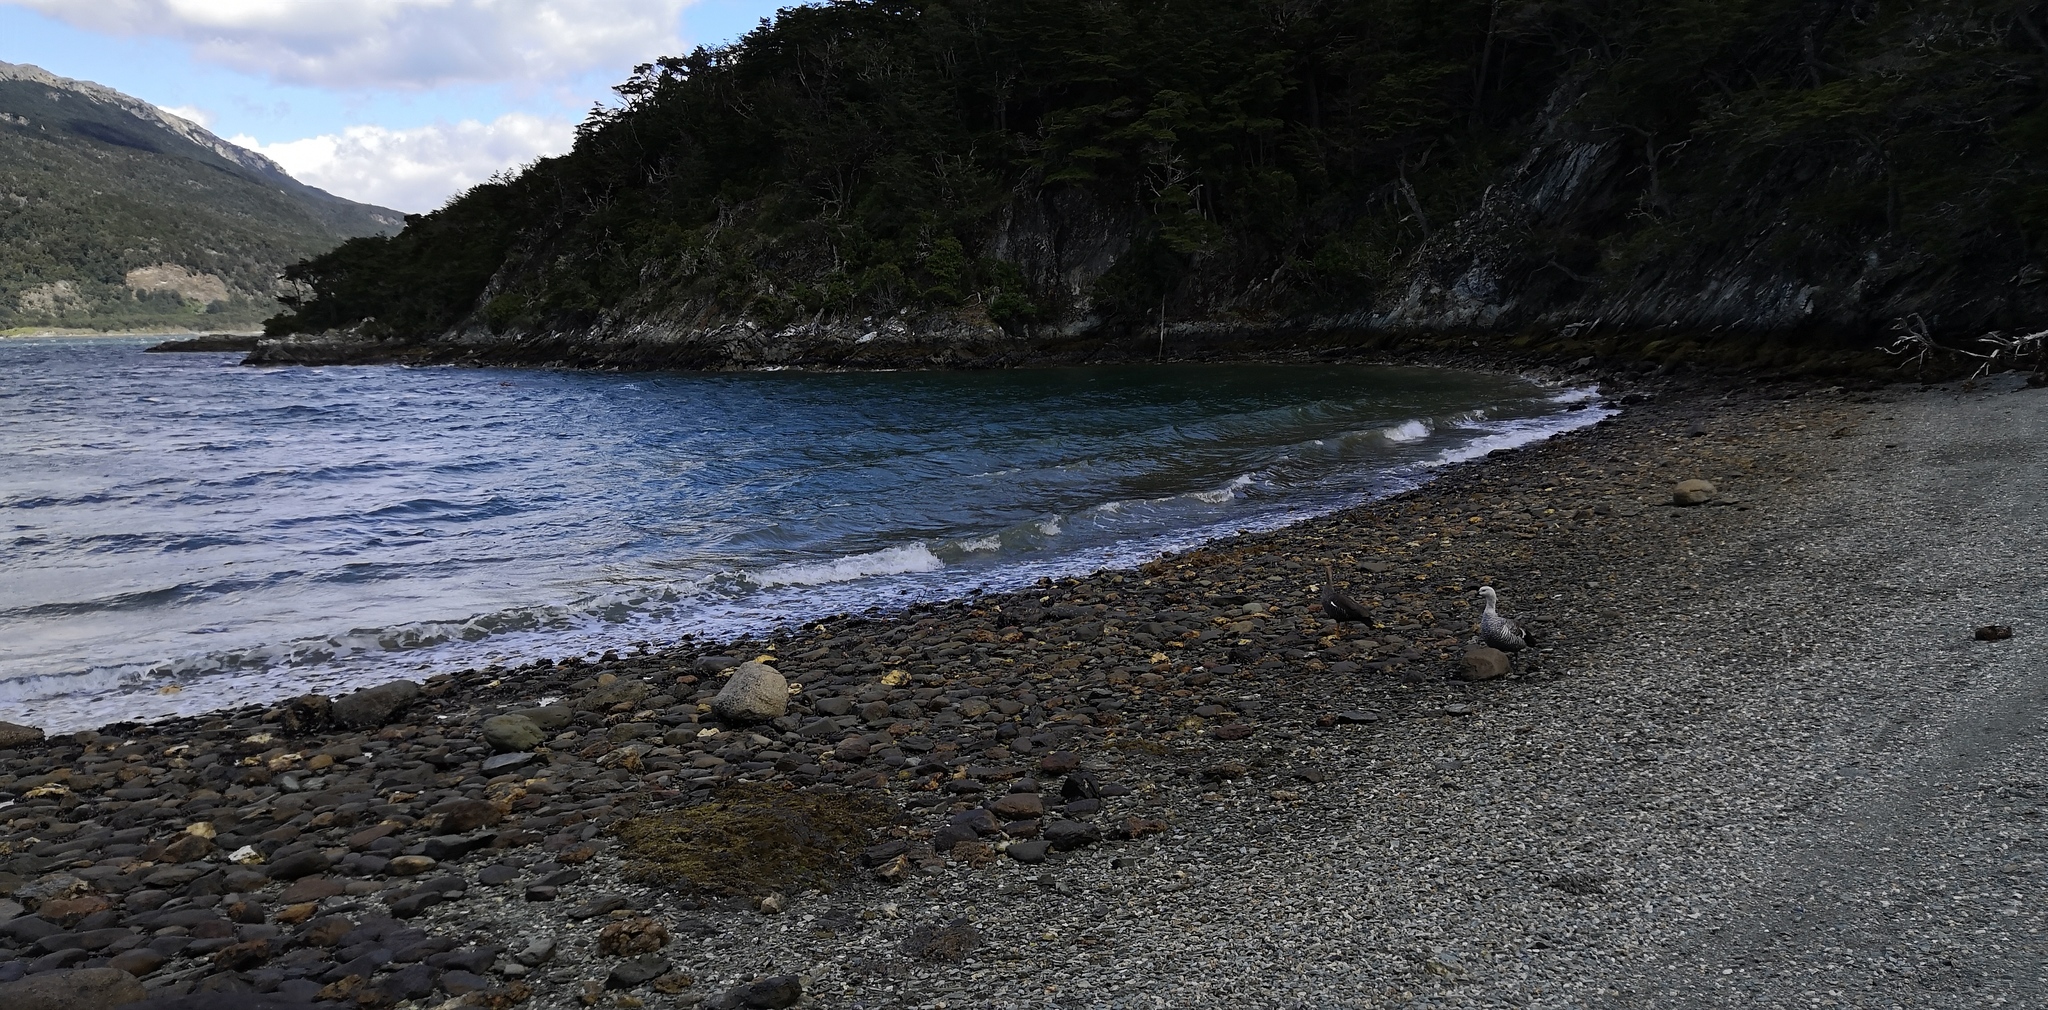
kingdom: Animalia
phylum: Chordata
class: Aves
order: Anseriformes
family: Anatidae
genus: Chloephaga
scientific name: Chloephaga picta
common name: Upland goose
